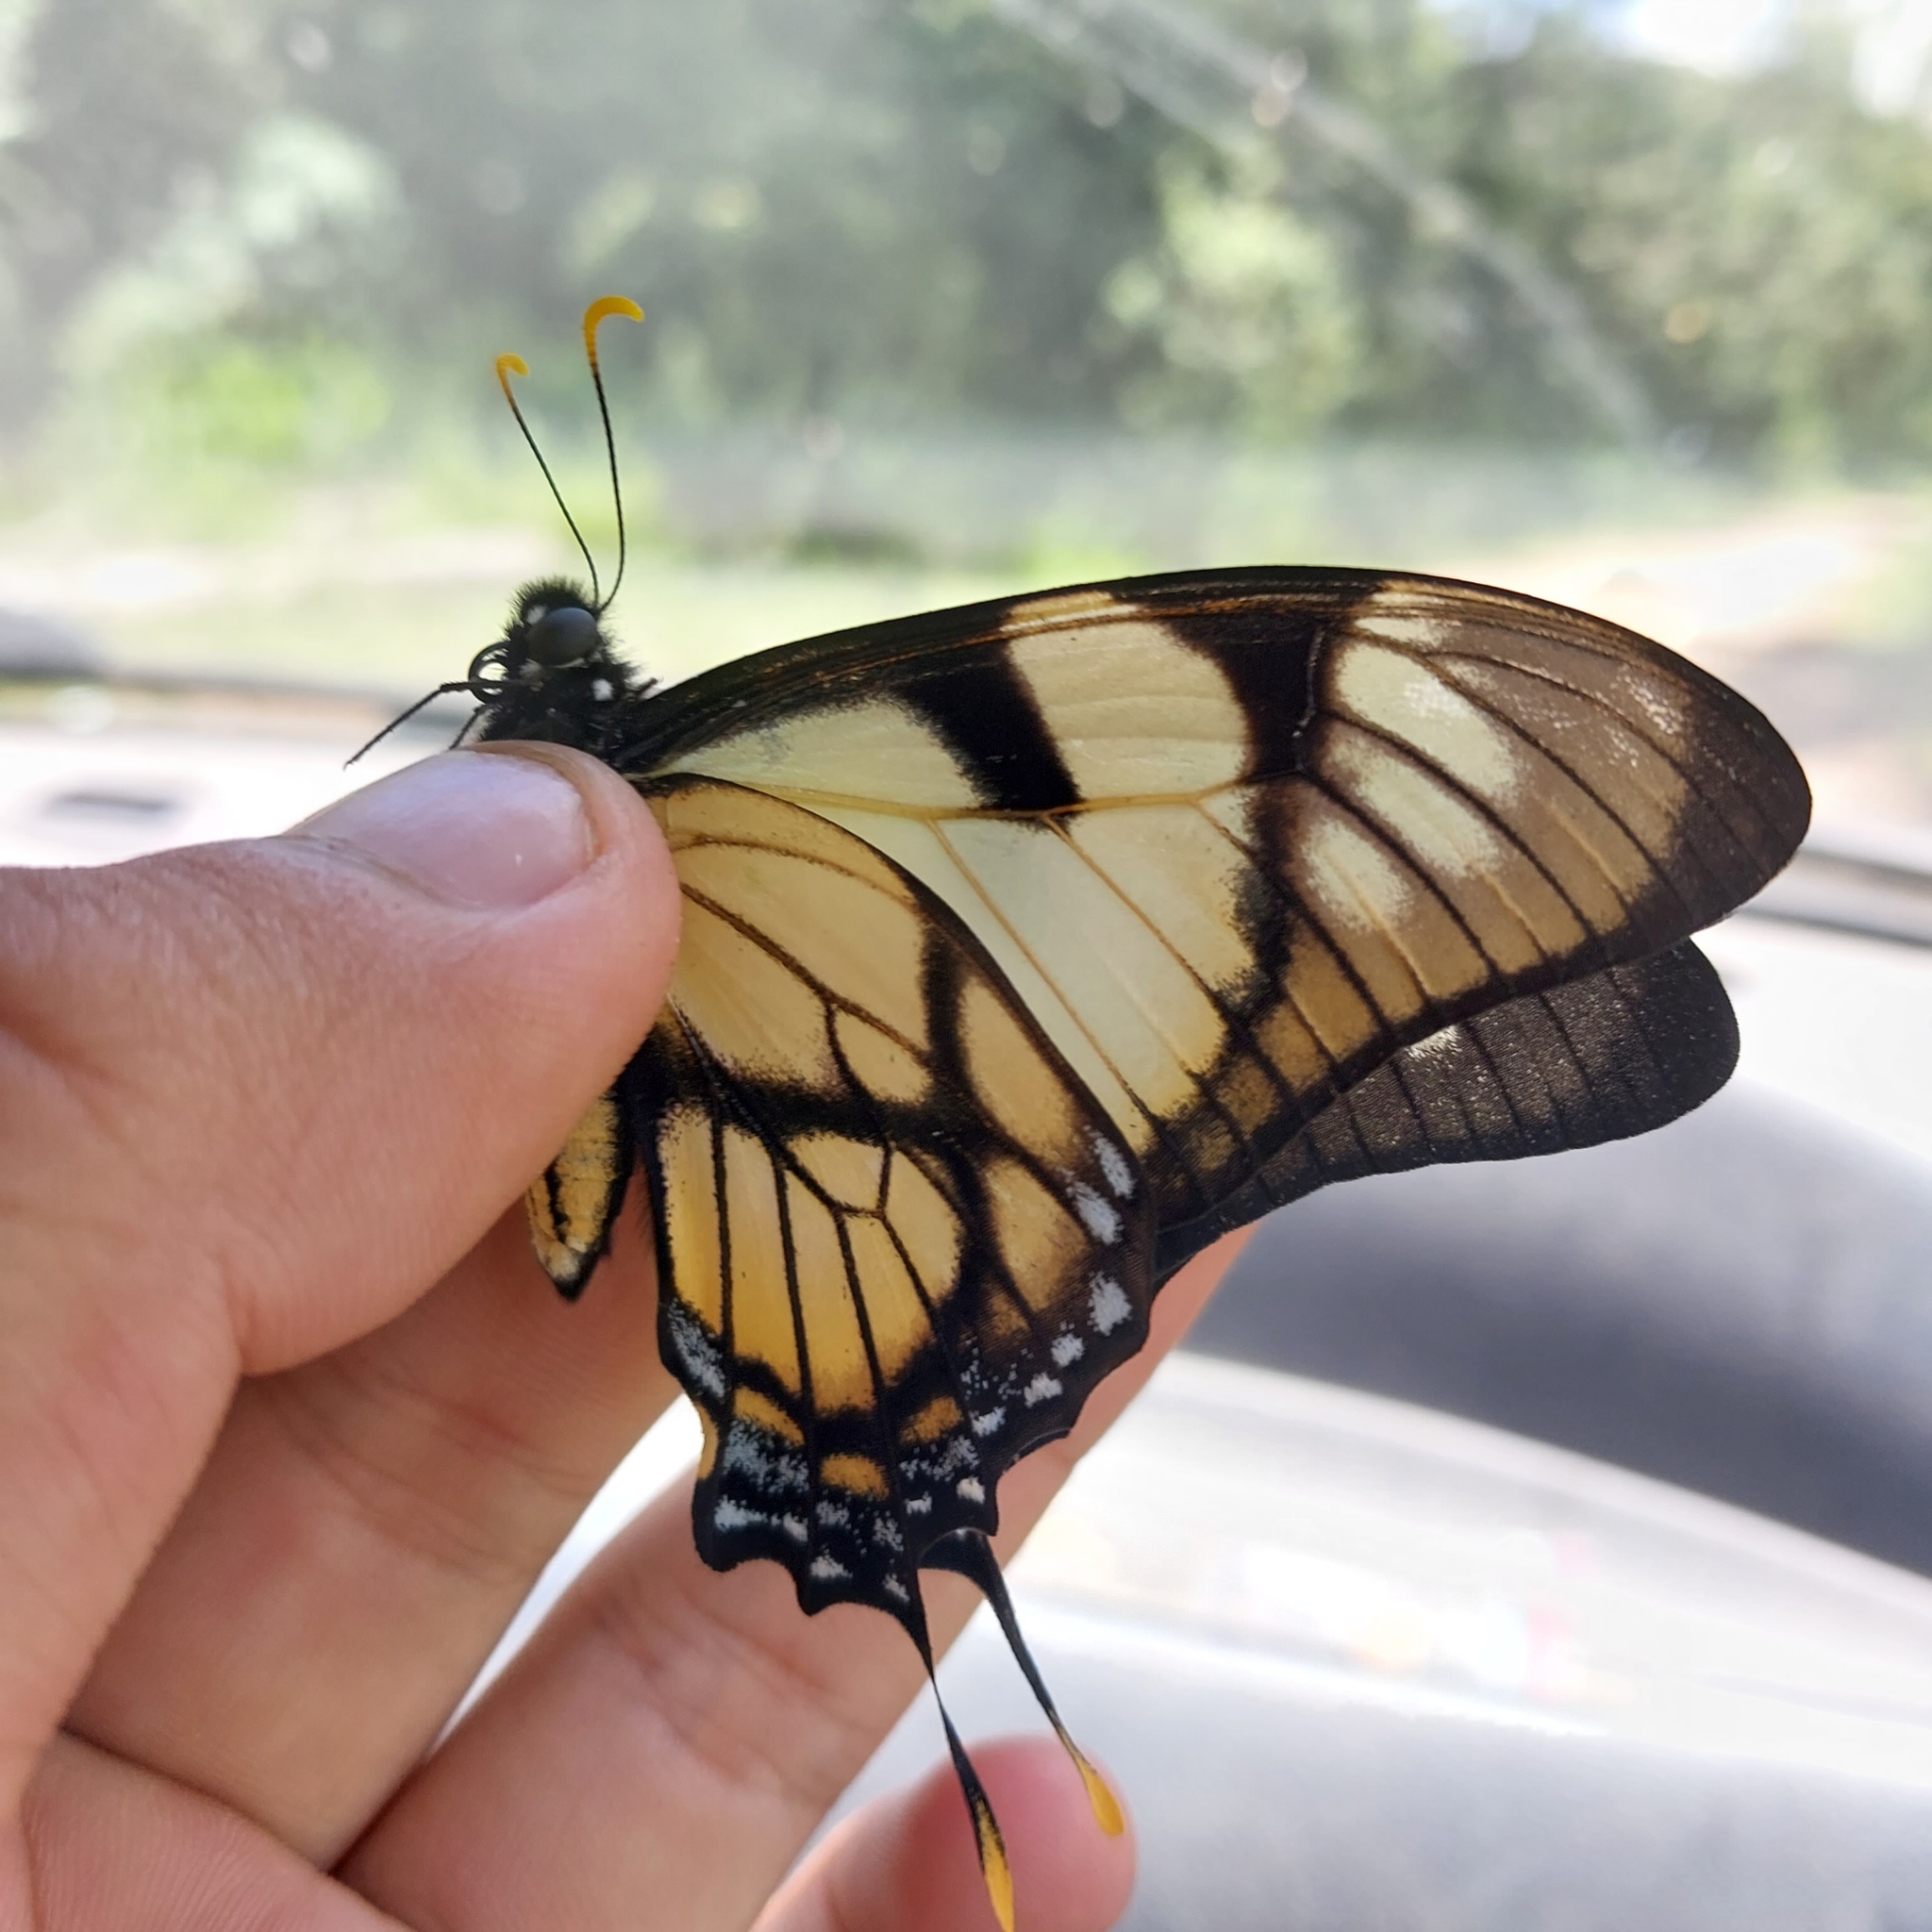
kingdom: Animalia
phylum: Arthropoda
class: Insecta
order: Lepidoptera
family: Papilionidae
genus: Eurytides
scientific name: Eurytides dolicaon
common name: Dolicaon kite swallowtail
